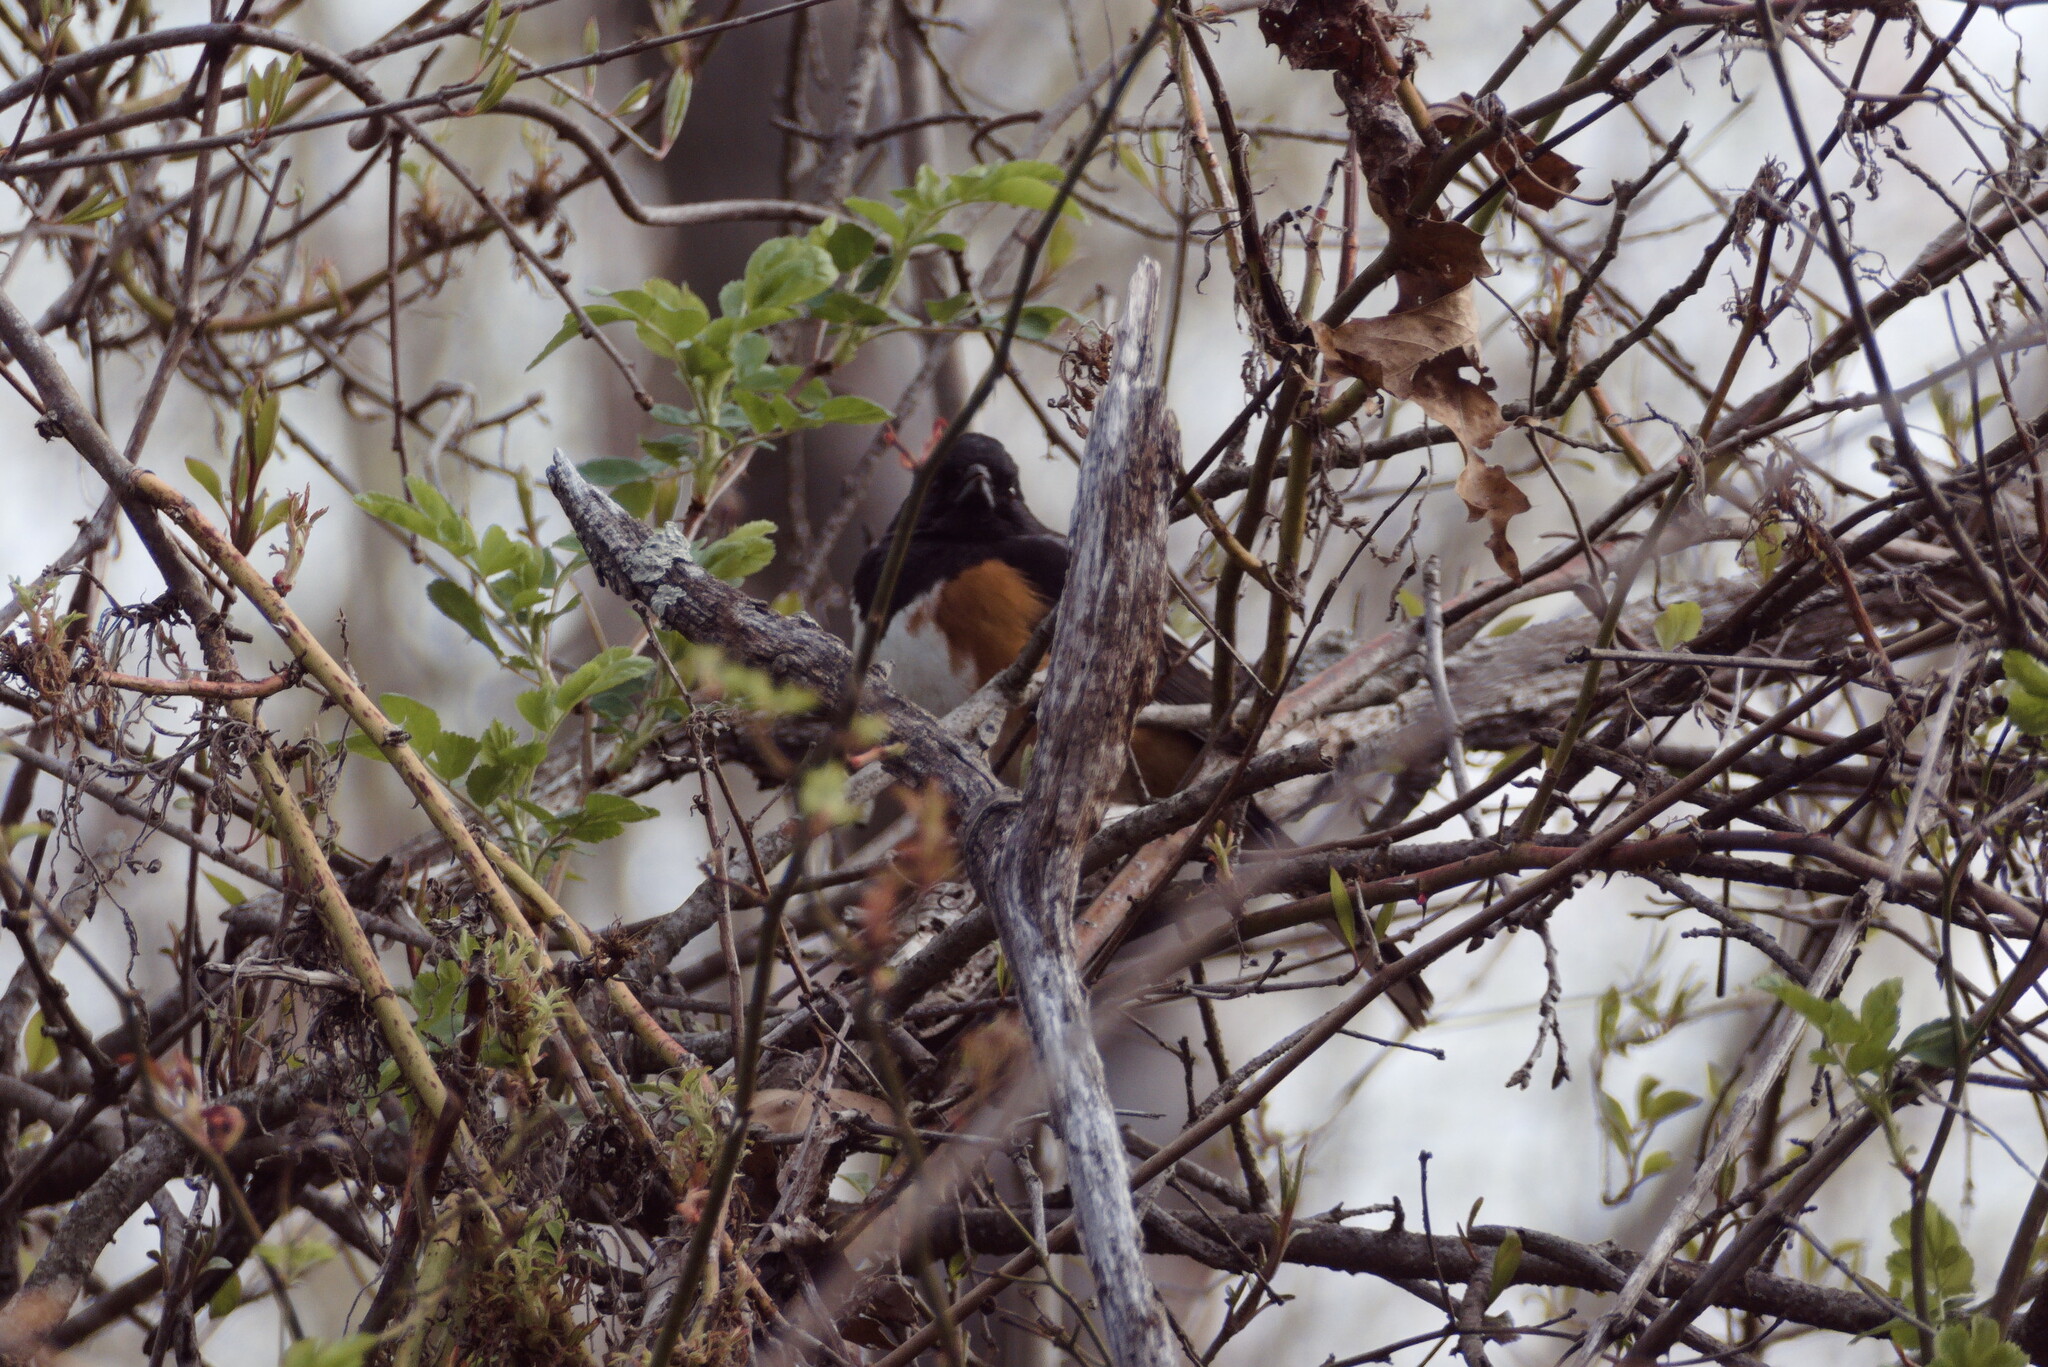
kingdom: Animalia
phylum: Chordata
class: Aves
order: Passeriformes
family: Passerellidae
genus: Pipilo
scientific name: Pipilo erythrophthalmus
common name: Eastern towhee
